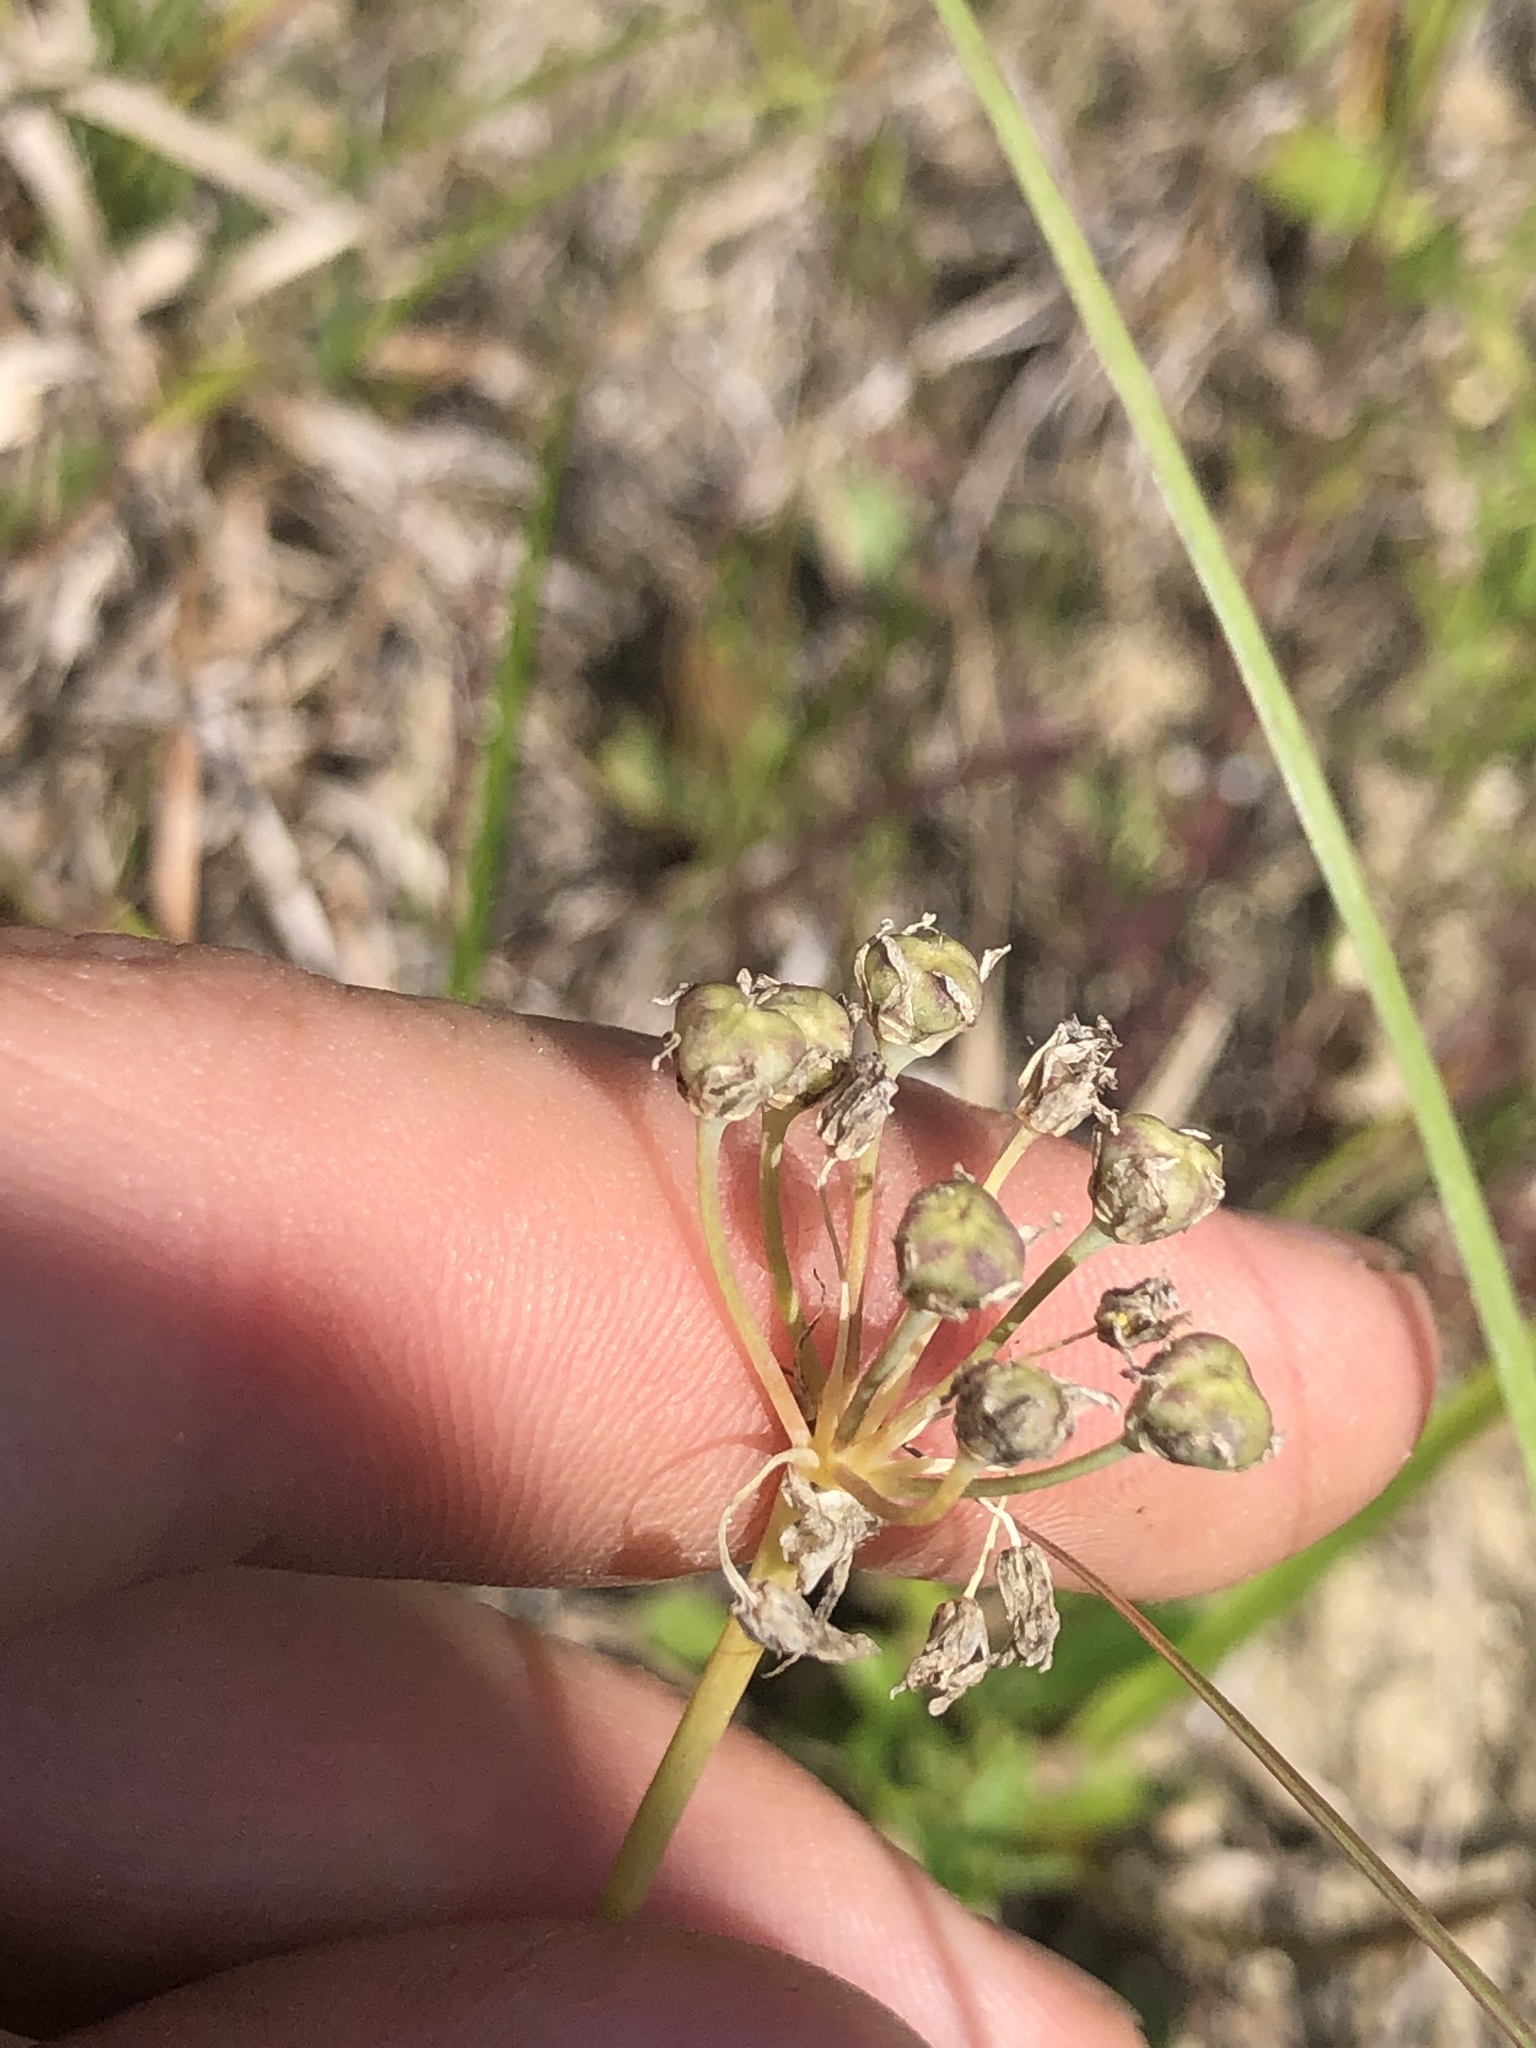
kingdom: Plantae
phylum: Tracheophyta
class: Liliopsida
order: Asparagales
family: Amaryllidaceae
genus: Allium
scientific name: Allium canadense
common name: Meadow garlic
